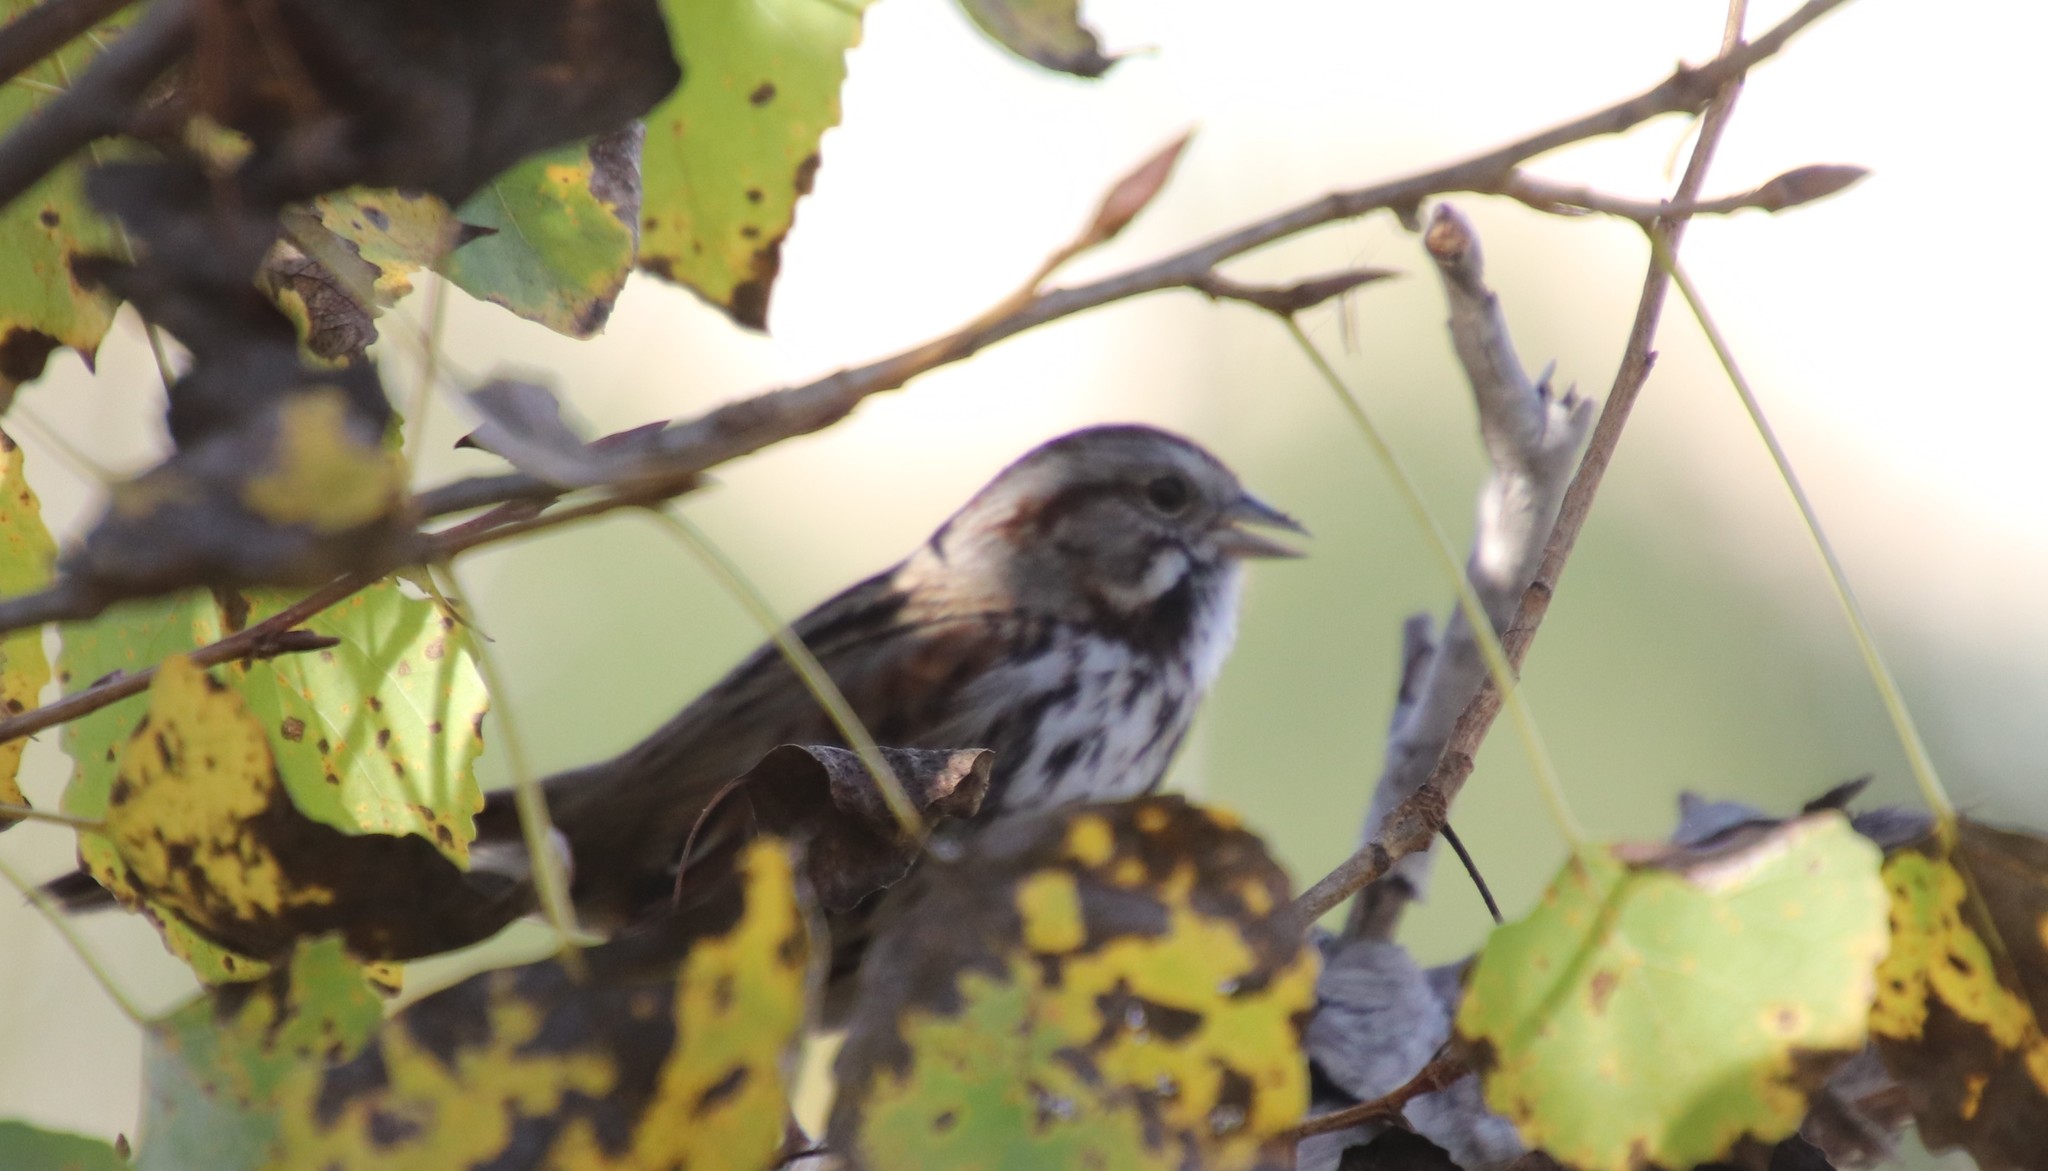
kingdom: Animalia
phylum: Chordata
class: Aves
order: Passeriformes
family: Passerellidae
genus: Melospiza
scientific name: Melospiza melodia
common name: Song sparrow
